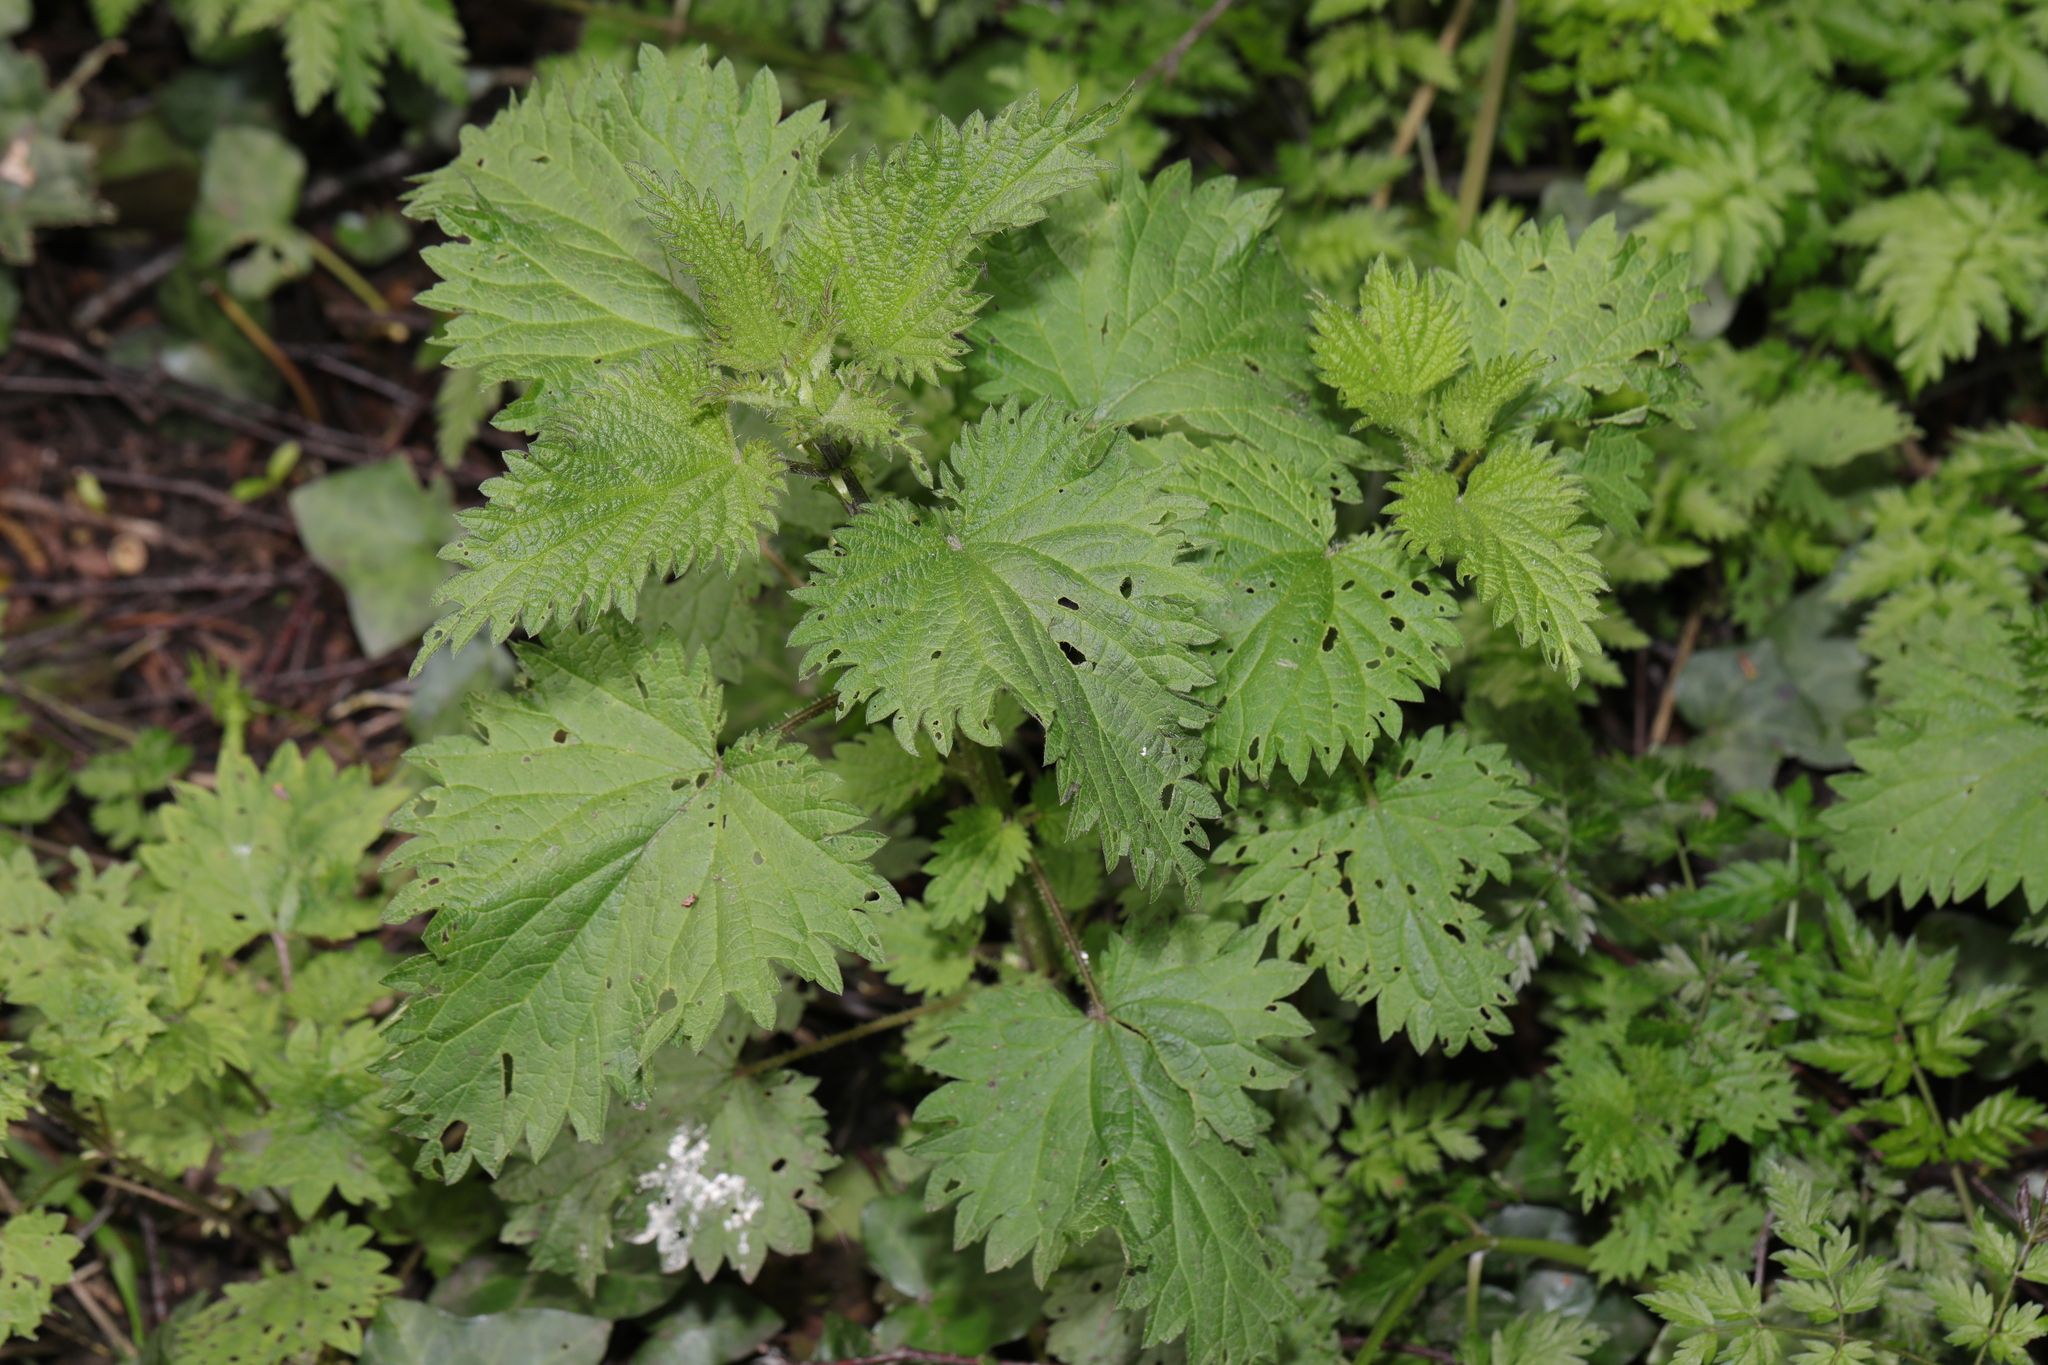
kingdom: Plantae
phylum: Tracheophyta
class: Magnoliopsida
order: Rosales
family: Urticaceae
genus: Urtica
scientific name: Urtica dioica
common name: Common nettle
